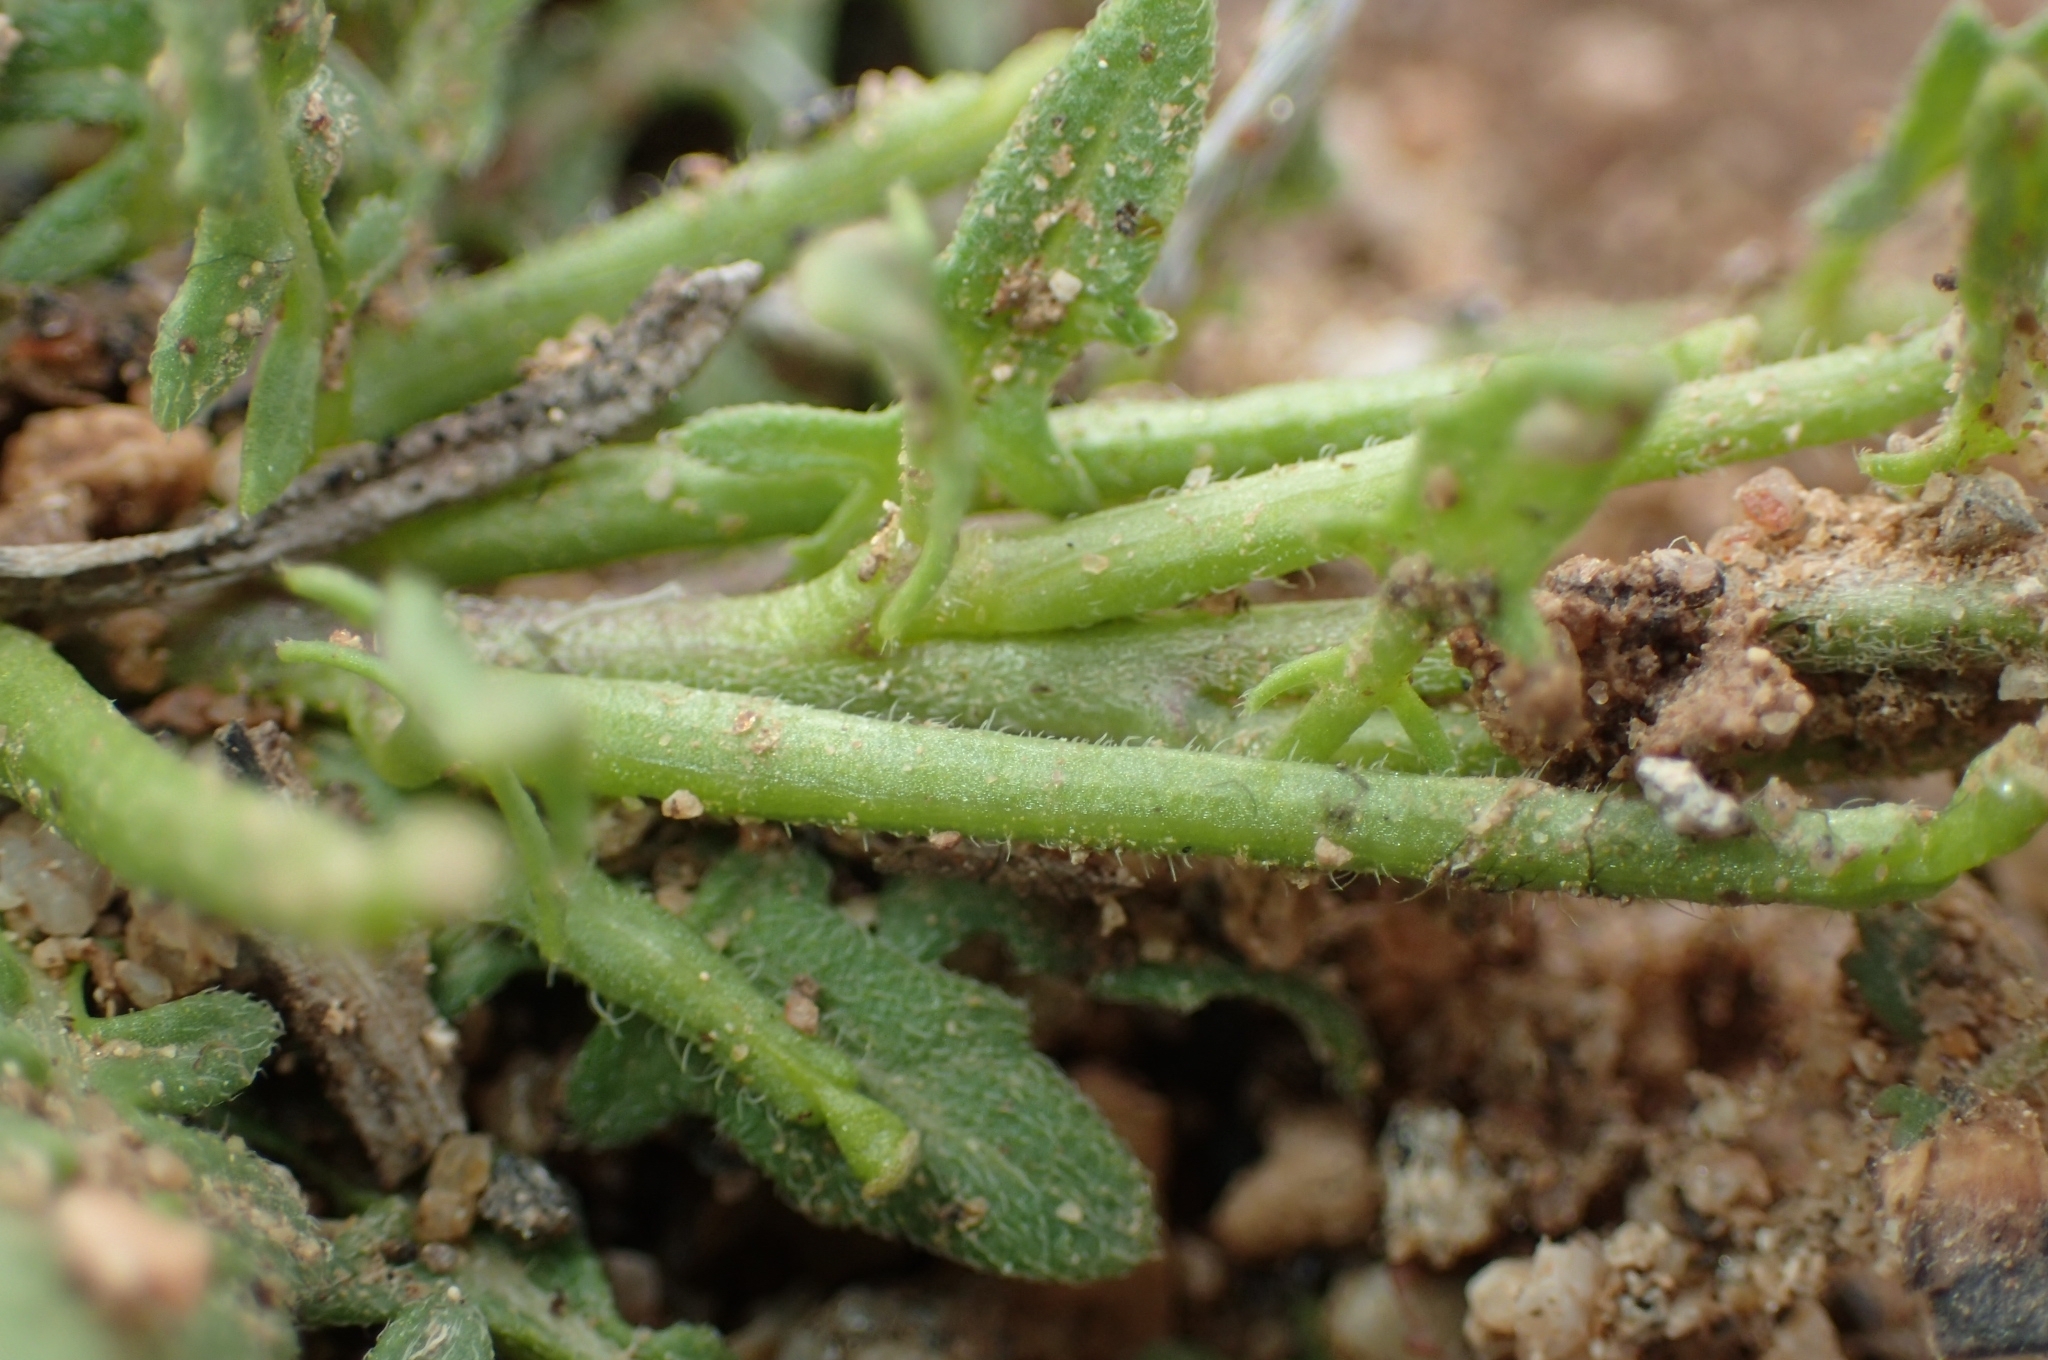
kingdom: Plantae
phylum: Tracheophyta
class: Magnoliopsida
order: Brassicales
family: Brassicaceae
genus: Sisymbrium
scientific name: Sisymbrium runcinatum
